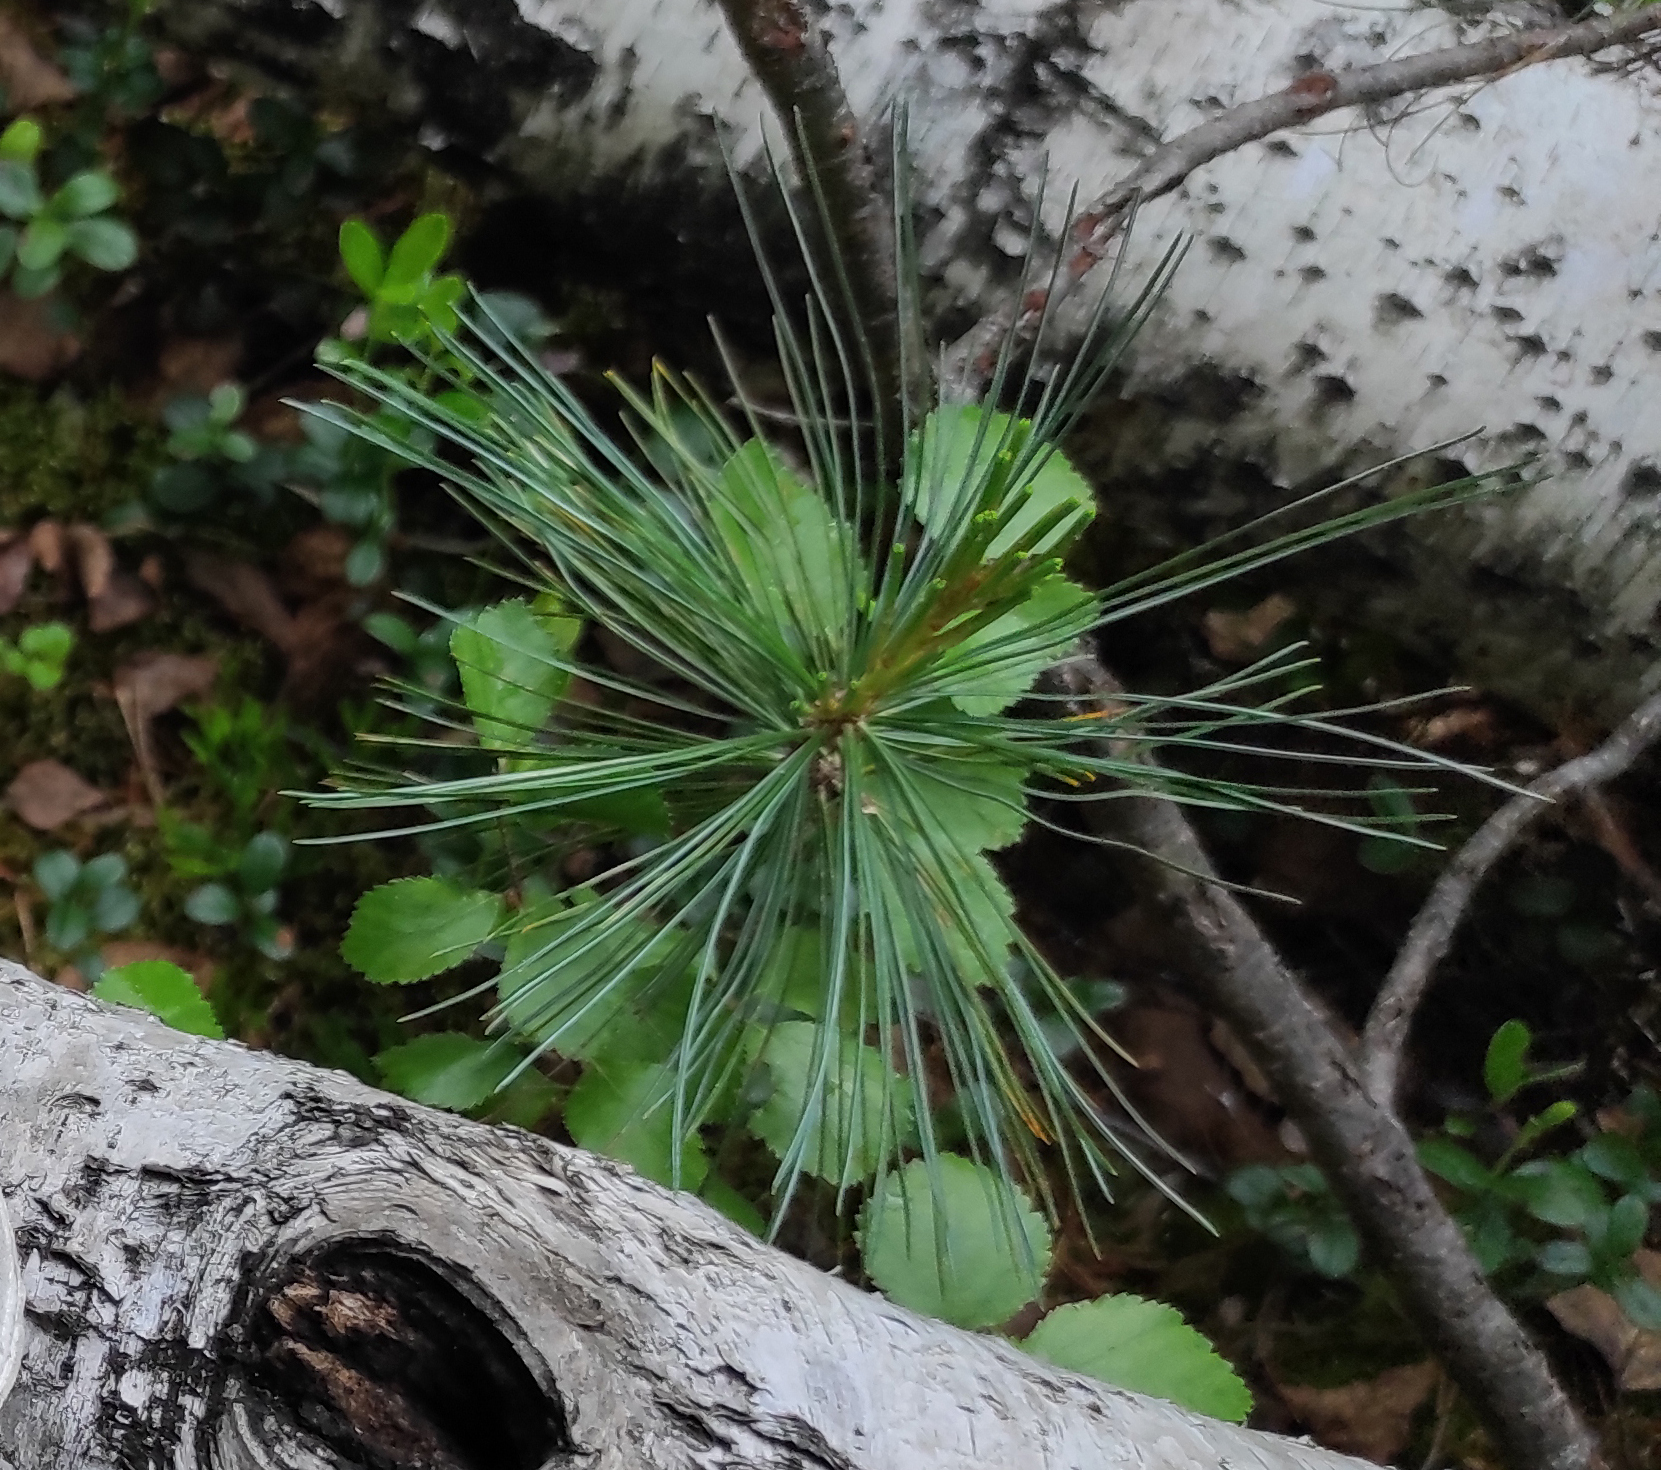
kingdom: Plantae
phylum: Tracheophyta
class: Pinopsida
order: Pinales
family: Pinaceae
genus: Pinus
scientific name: Pinus pumila
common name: Dwarf siberian pine
